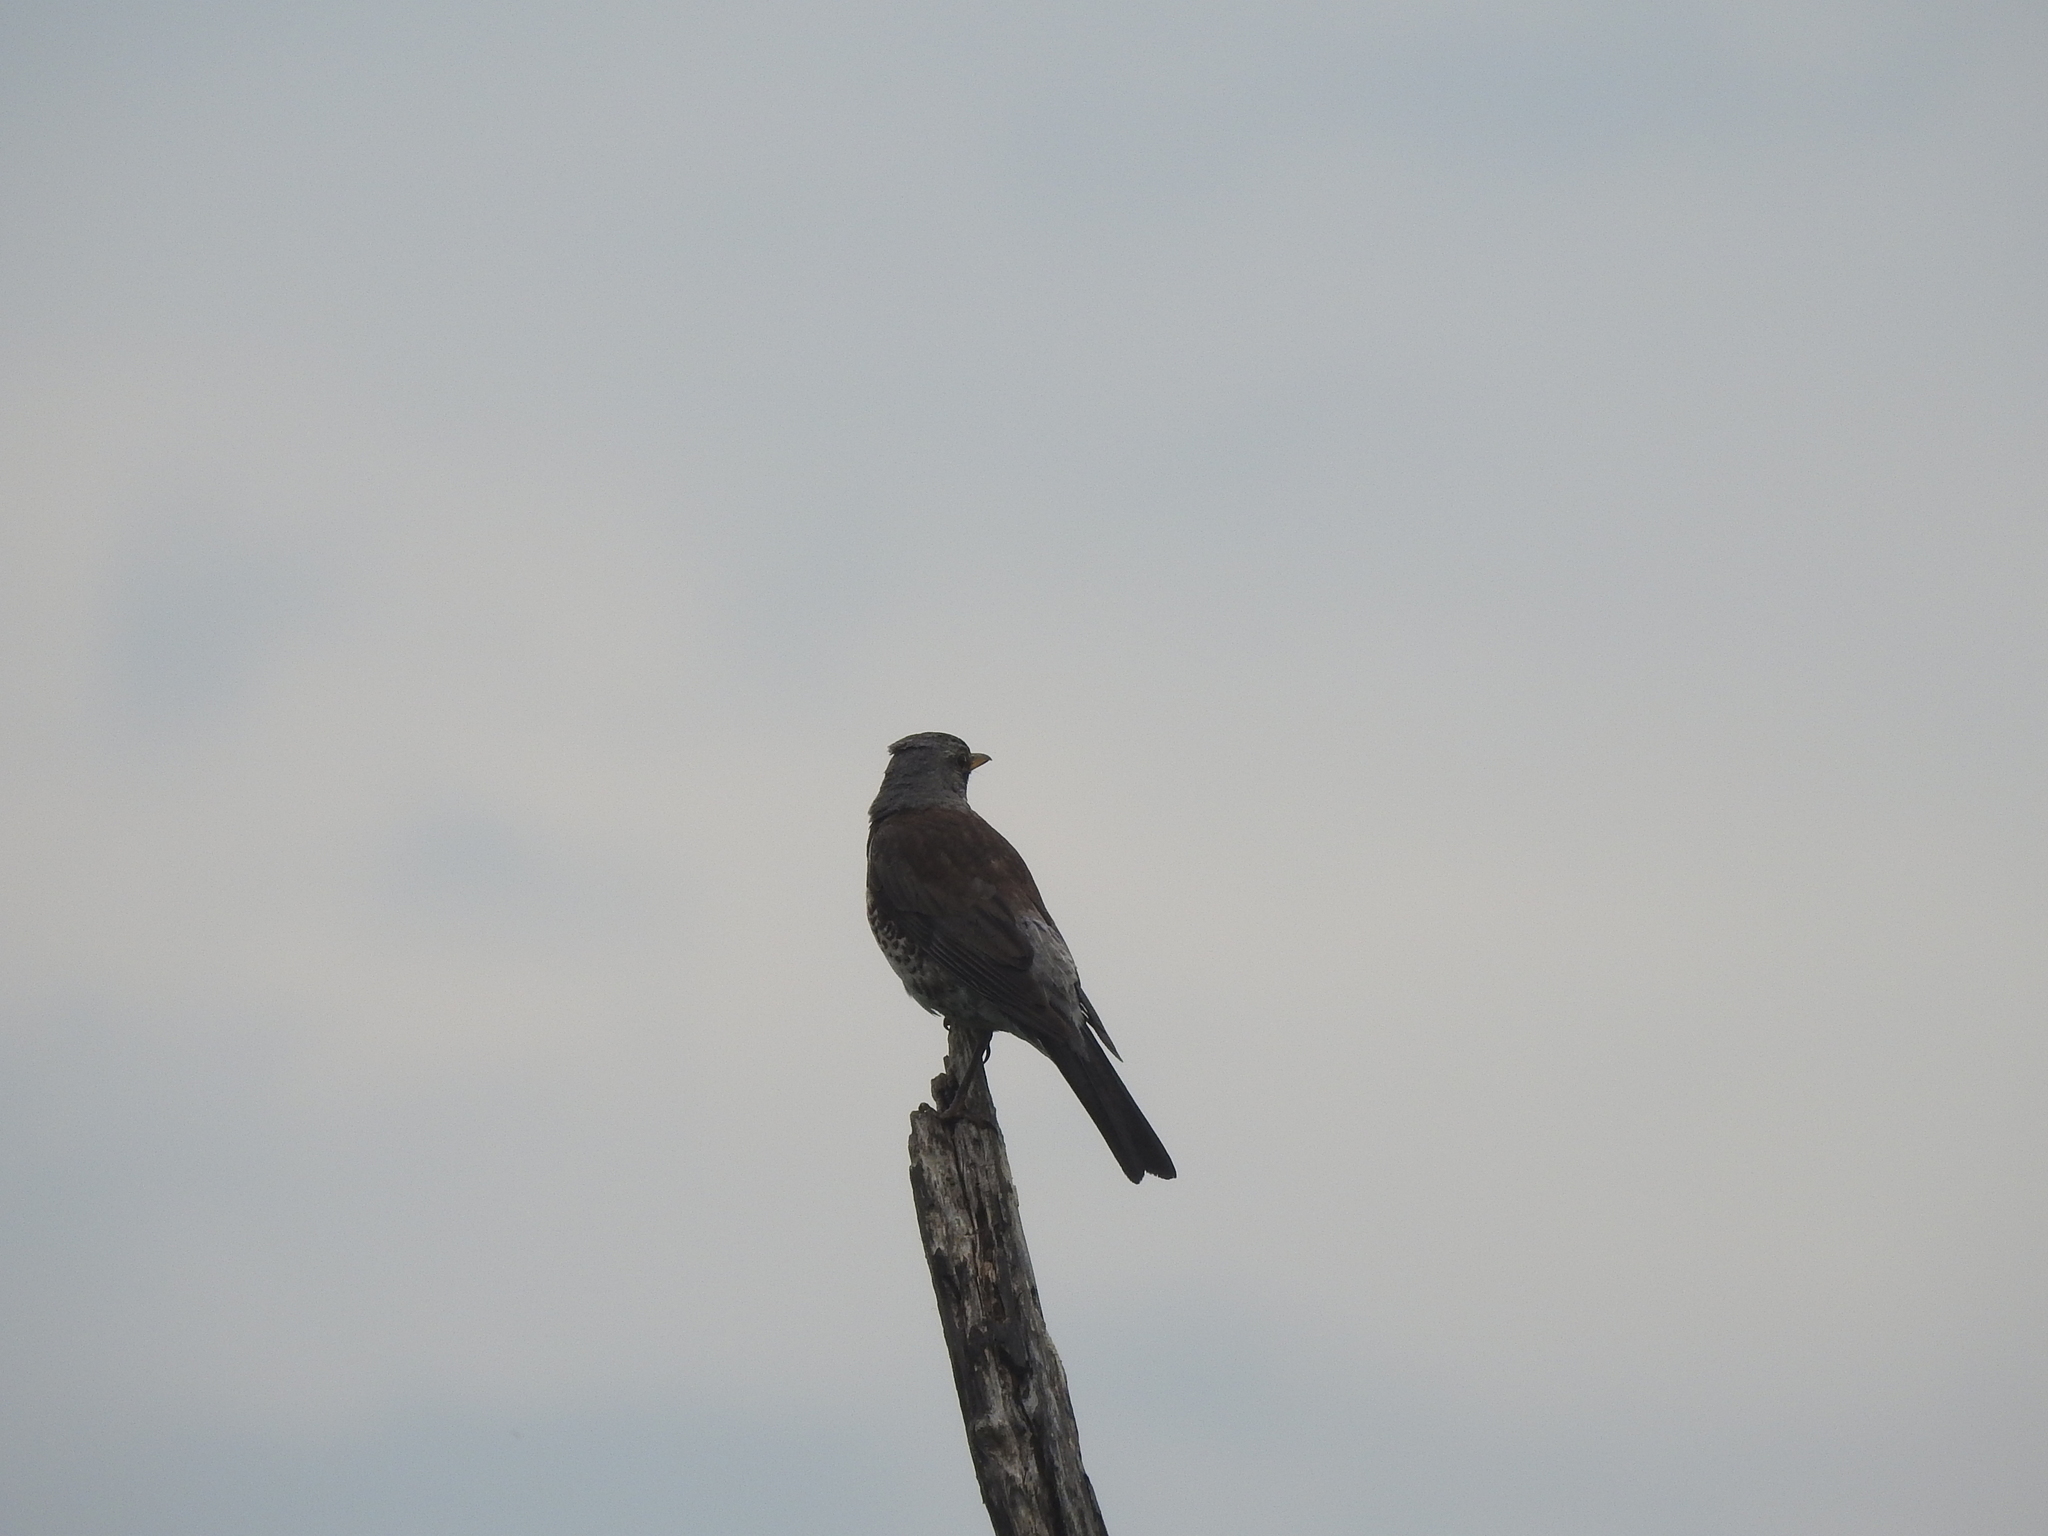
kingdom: Animalia
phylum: Chordata
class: Aves
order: Passeriformes
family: Turdidae
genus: Turdus
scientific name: Turdus pilaris
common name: Fieldfare
